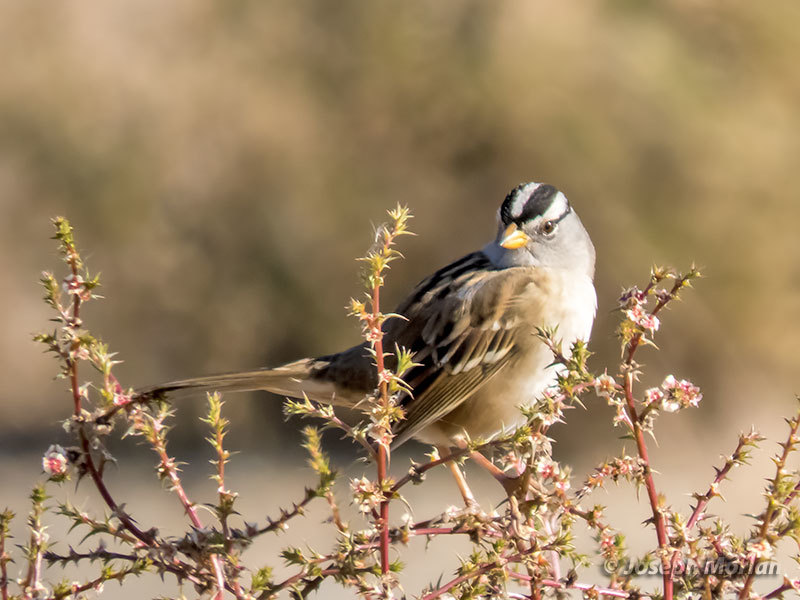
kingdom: Animalia
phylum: Chordata
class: Aves
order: Passeriformes
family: Passerellidae
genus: Zonotrichia
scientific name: Zonotrichia leucophrys
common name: White-crowned sparrow
